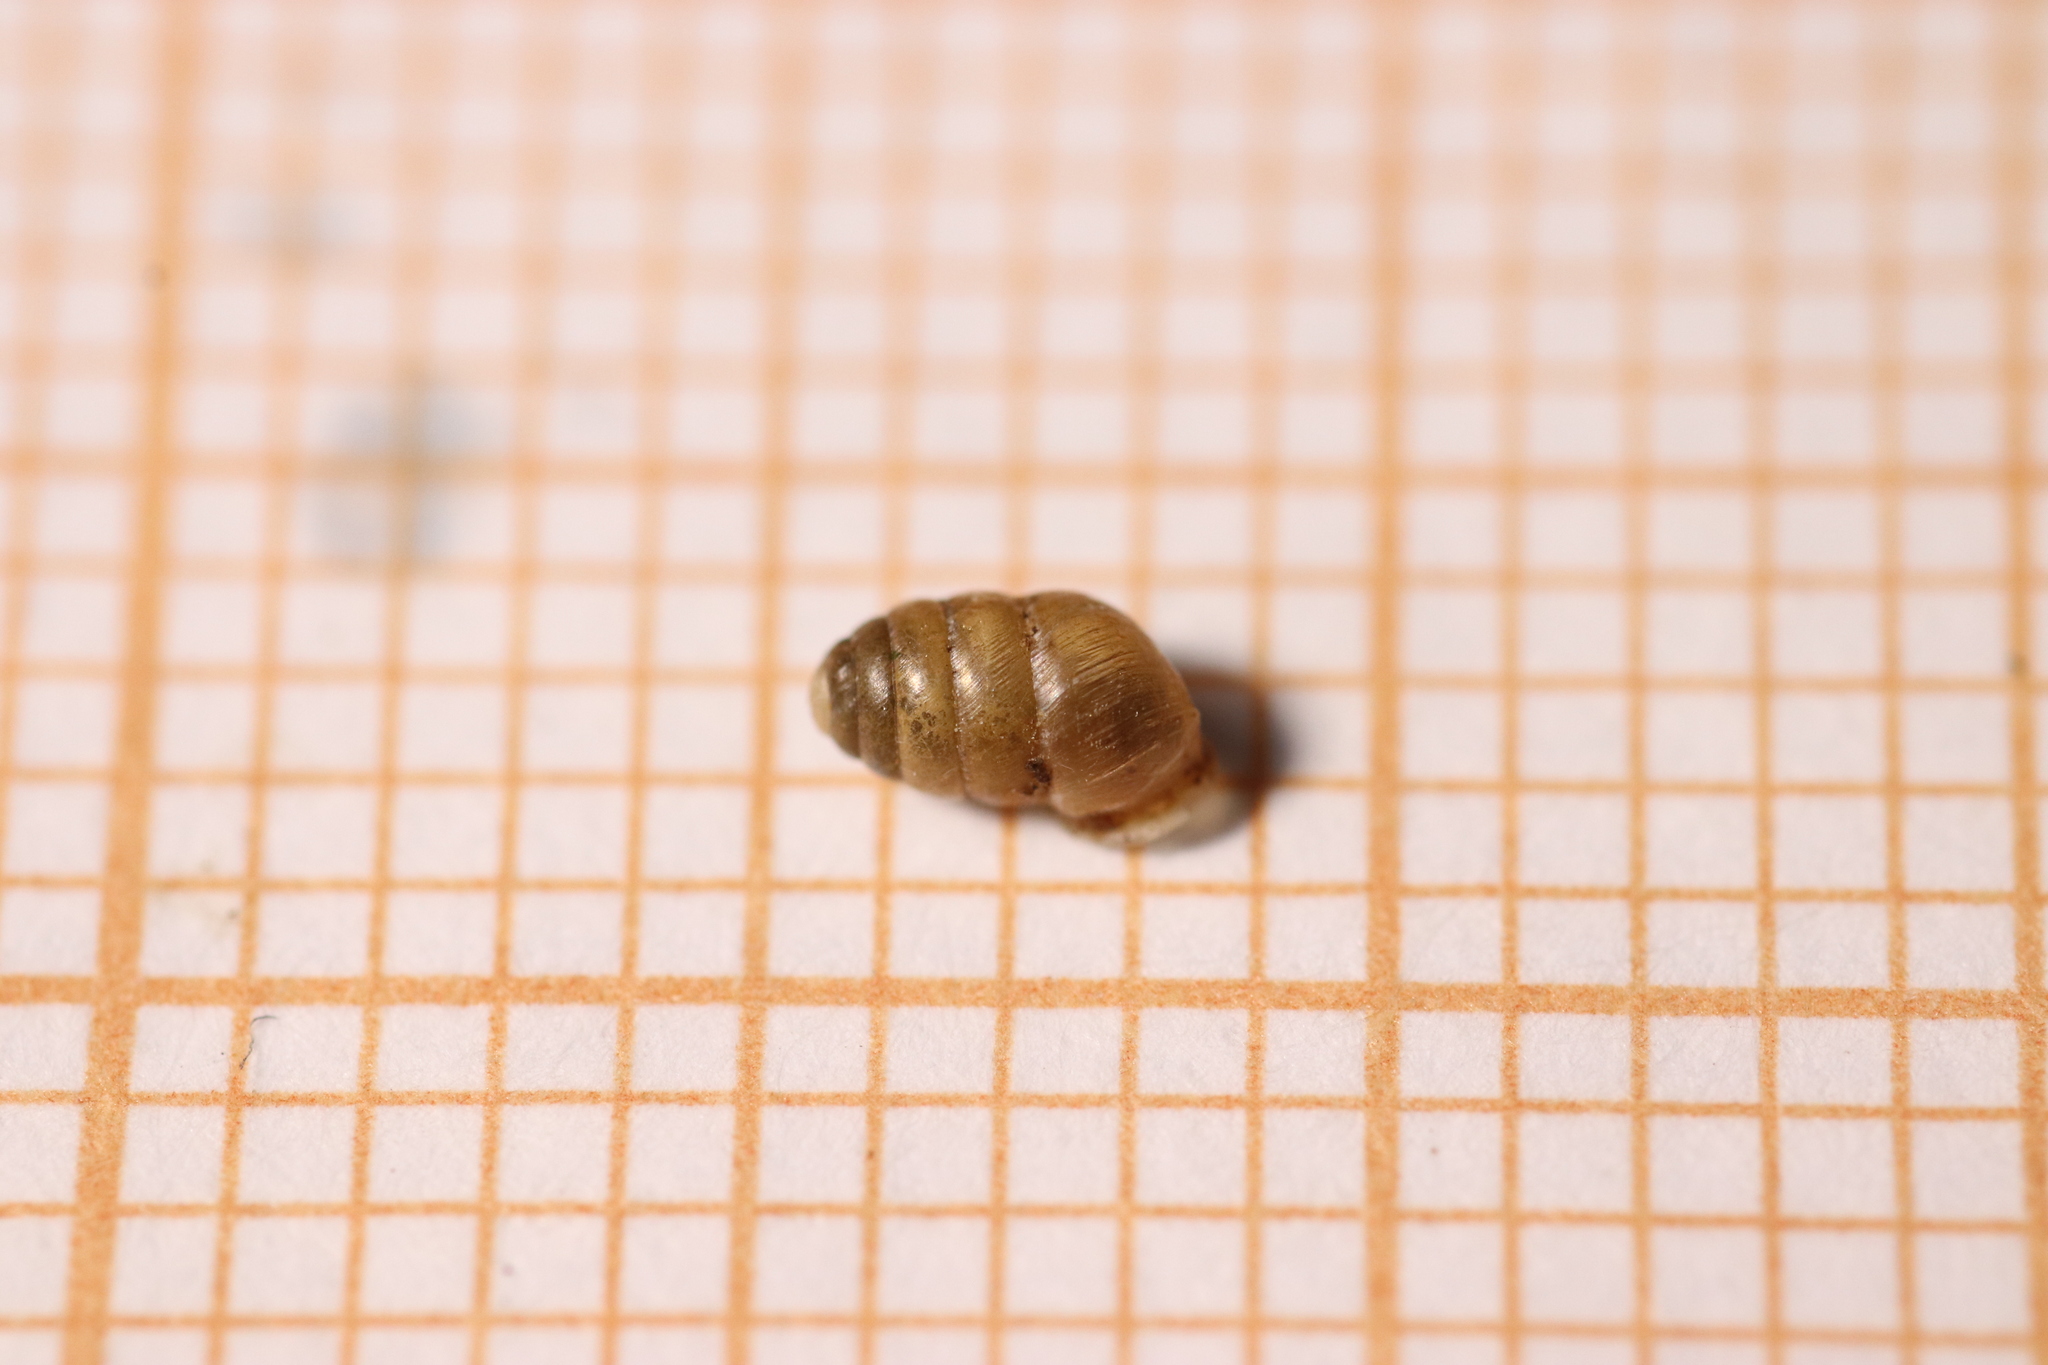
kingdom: Animalia
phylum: Mollusca
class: Gastropoda
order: Stylommatophora
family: Lauriidae
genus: Lauria
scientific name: Lauria cylindracea
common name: Common chrysalis snail
